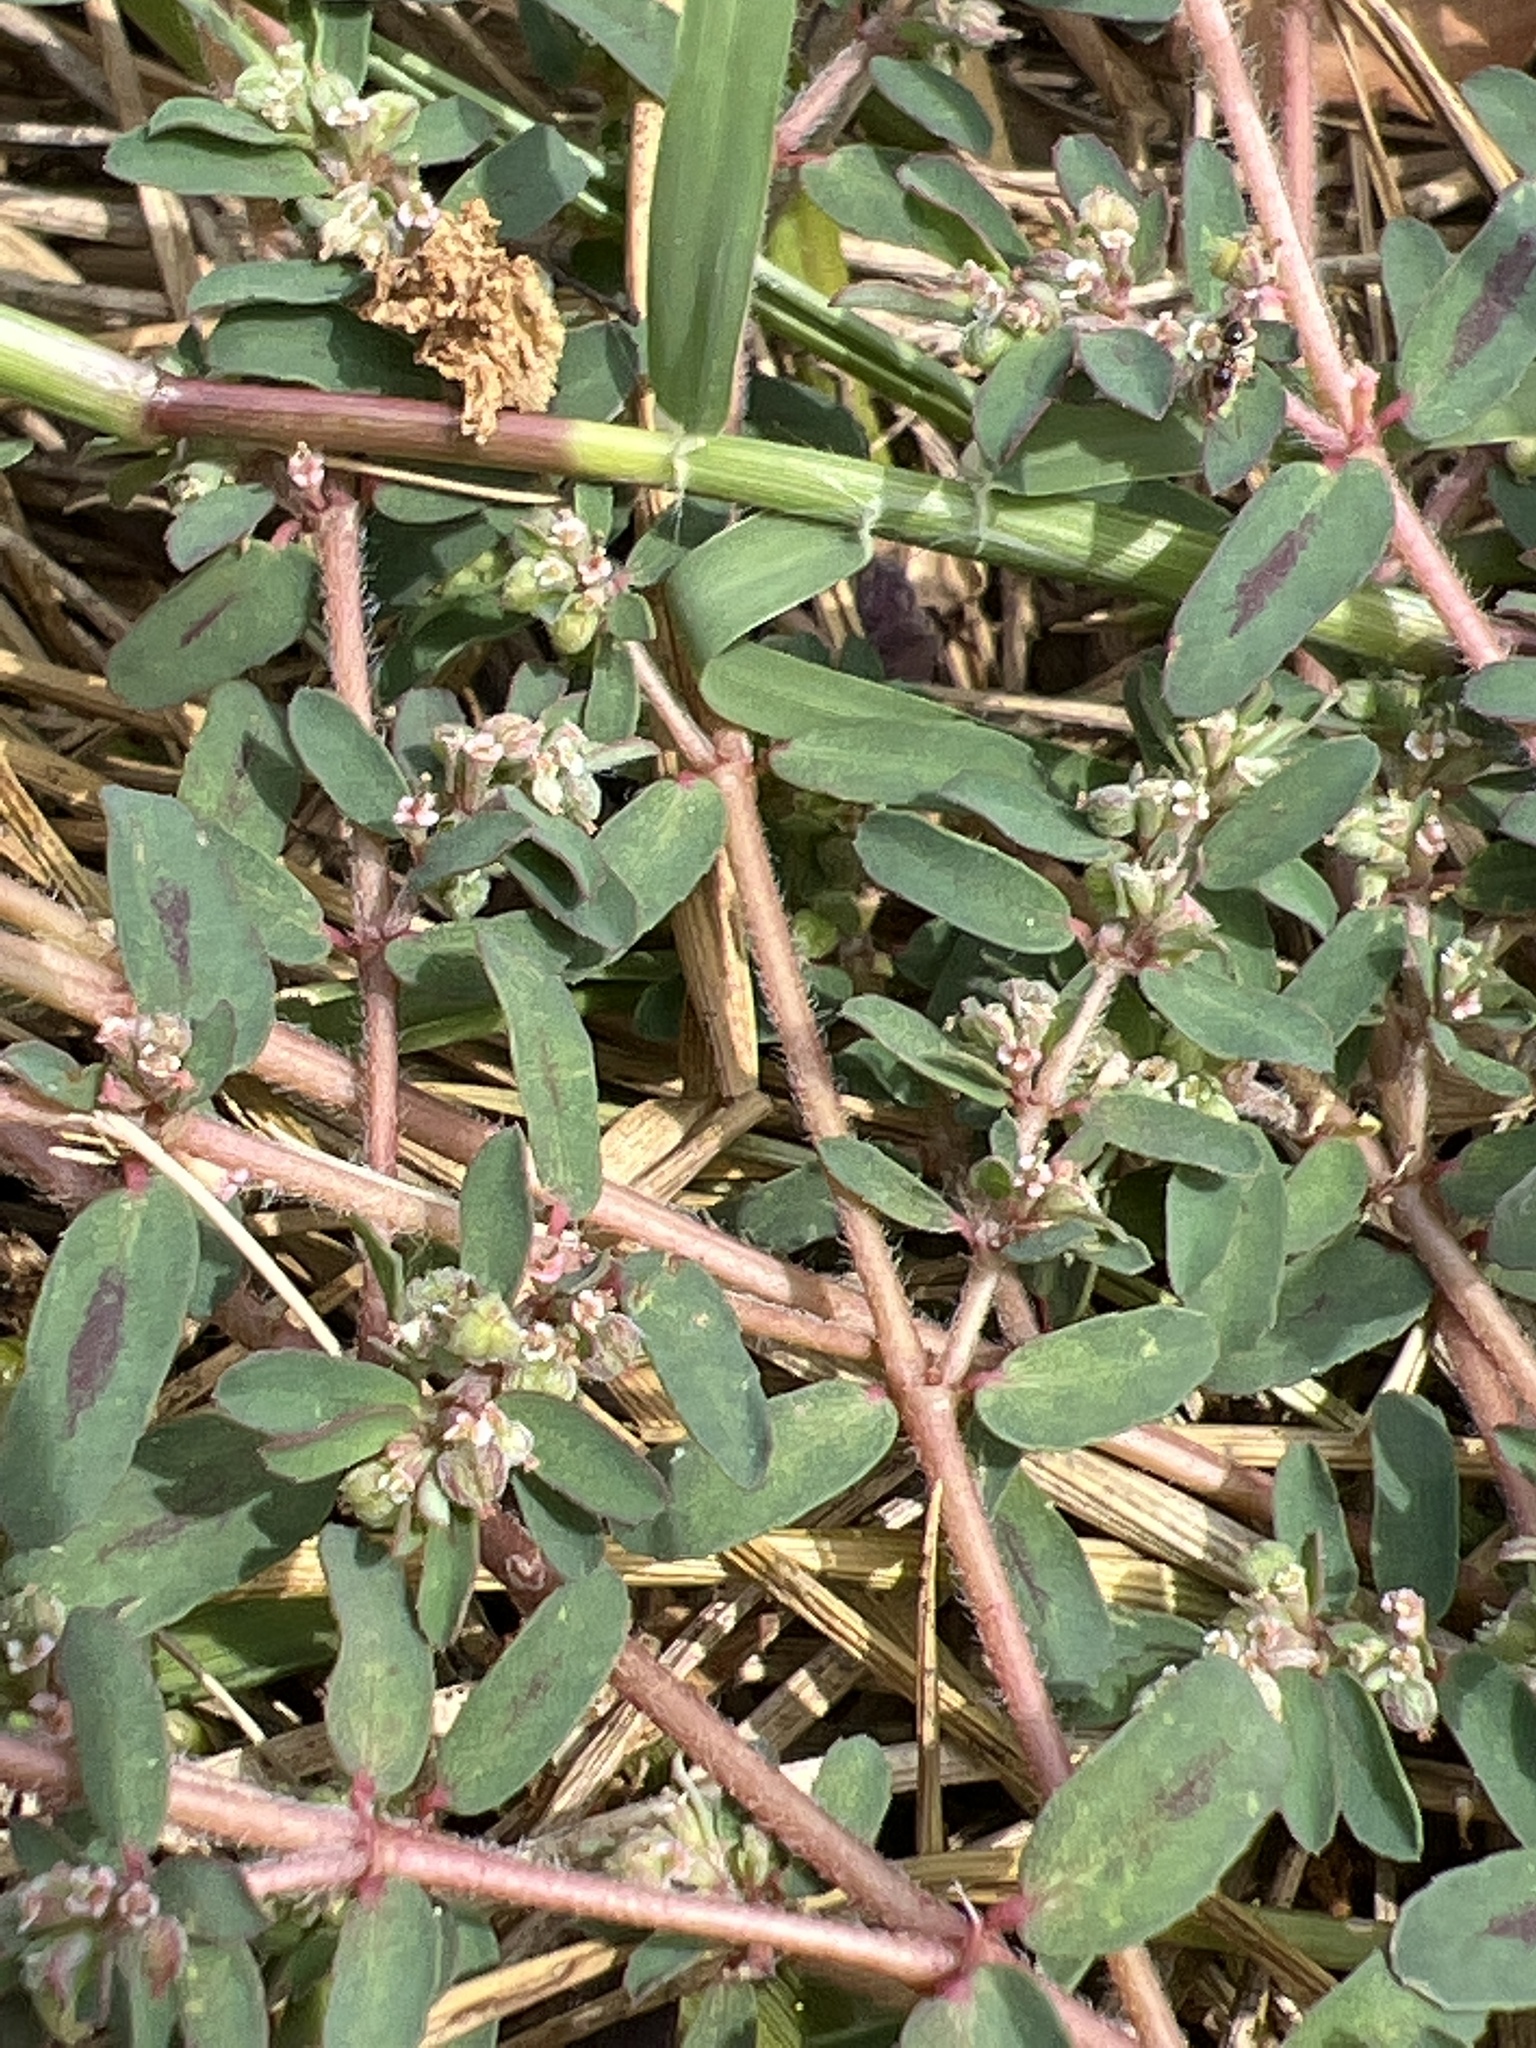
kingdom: Plantae
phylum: Tracheophyta
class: Magnoliopsida
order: Malpighiales
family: Euphorbiaceae
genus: Euphorbia
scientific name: Euphorbia maculata
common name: Spotted spurge
